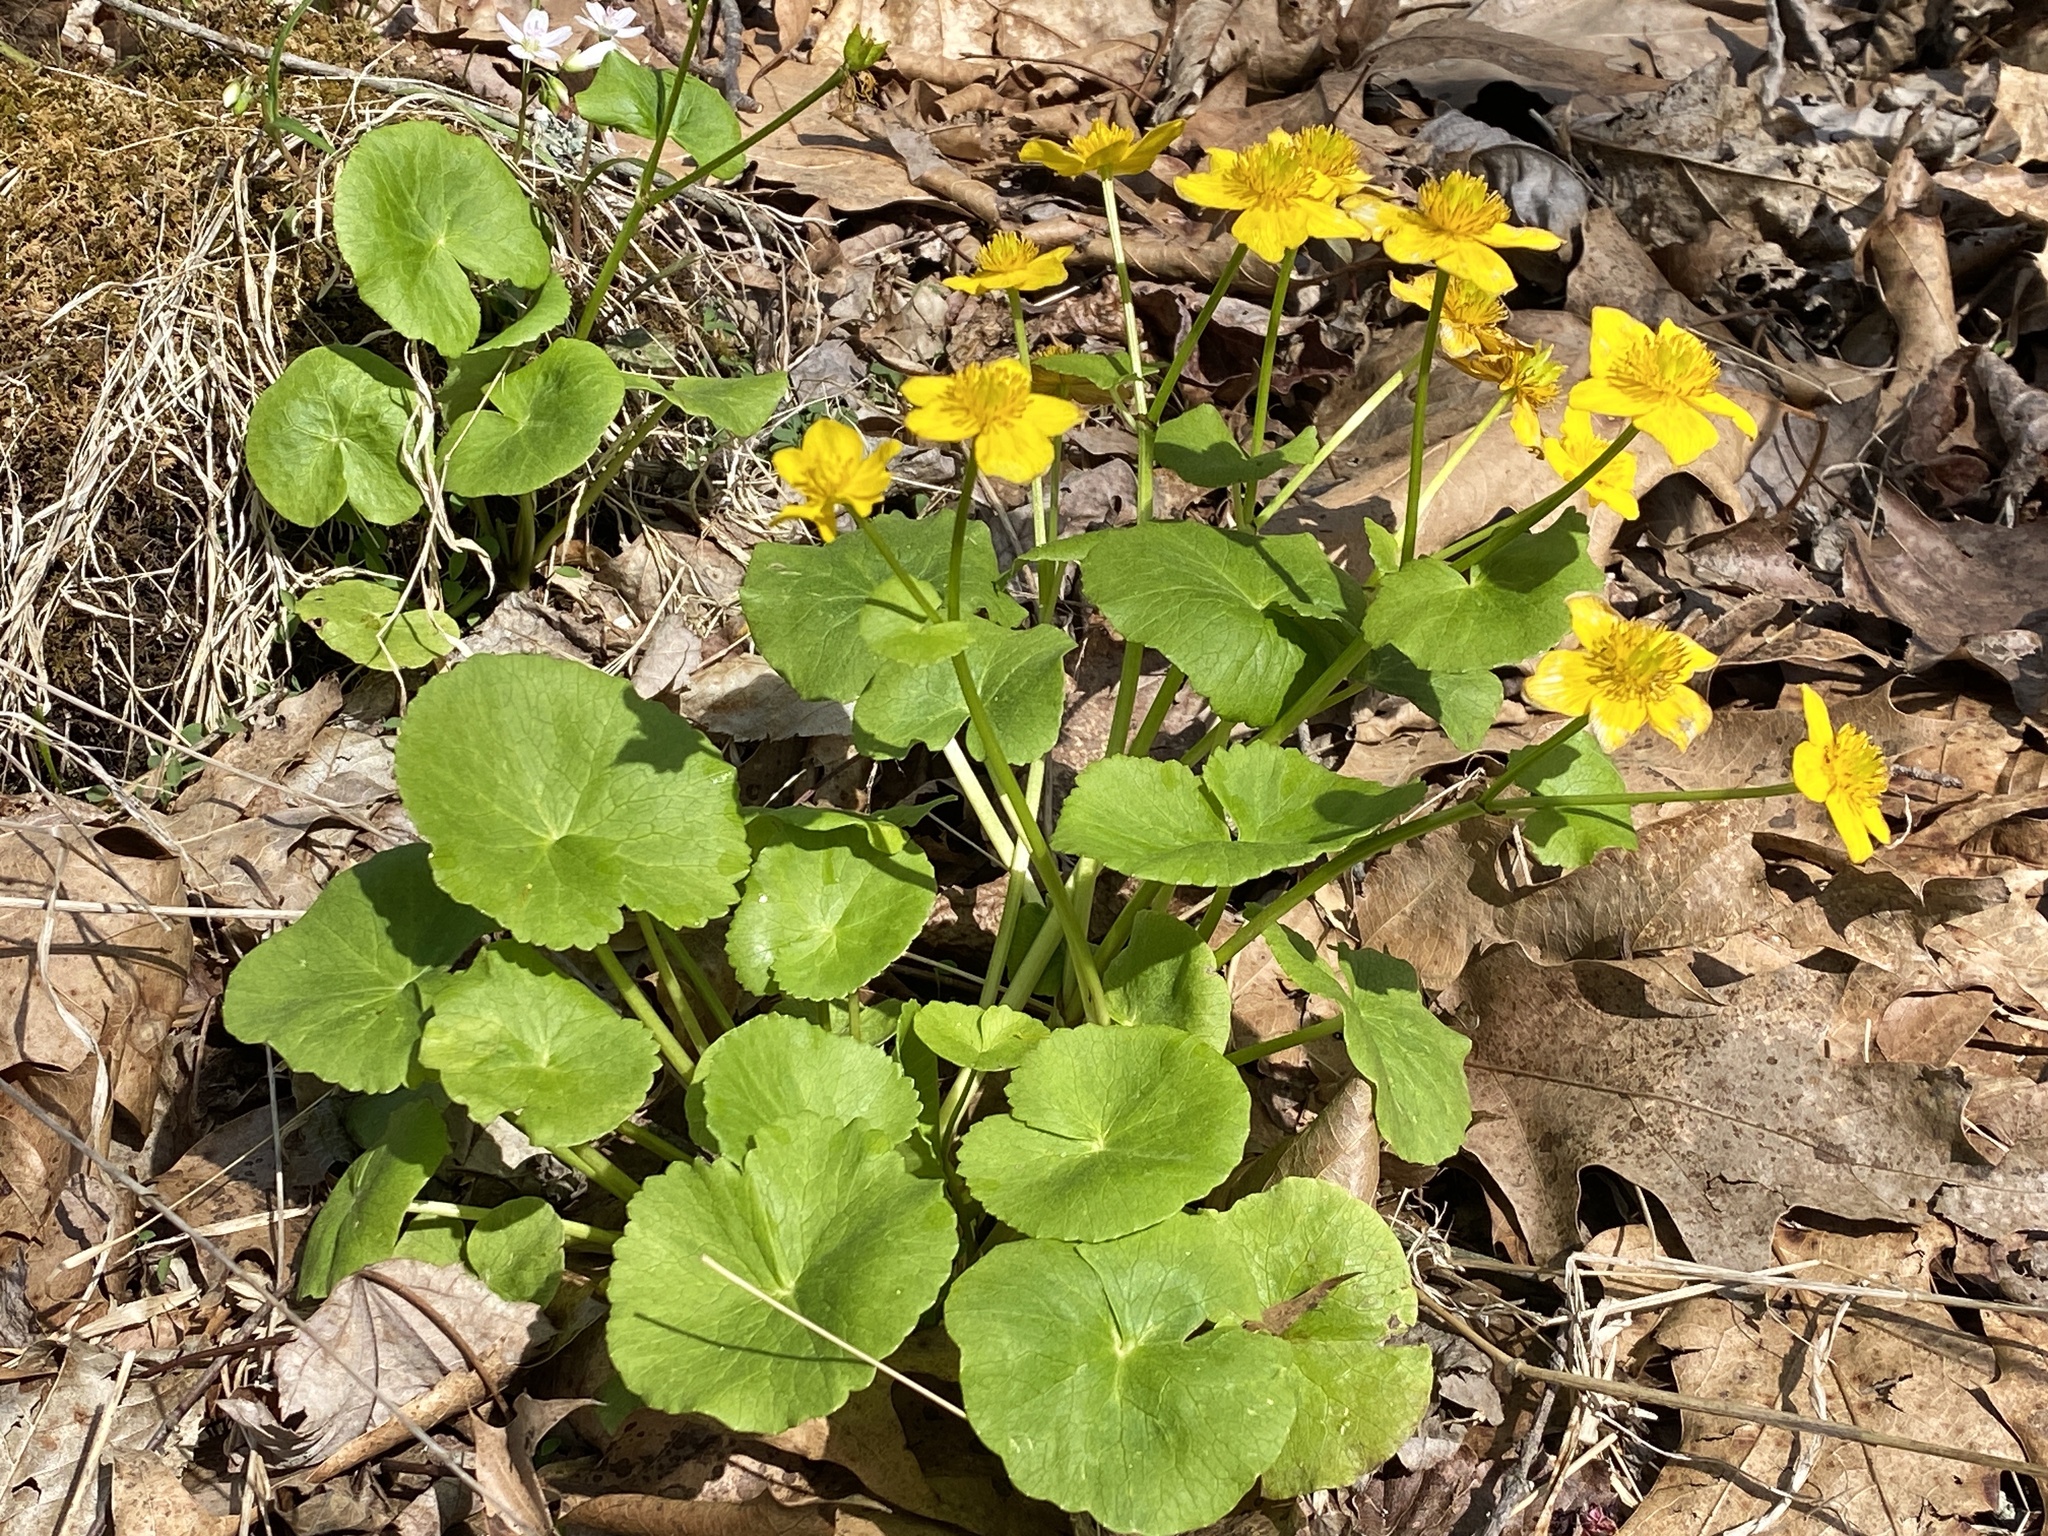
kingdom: Plantae
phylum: Tracheophyta
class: Magnoliopsida
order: Ranunculales
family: Ranunculaceae
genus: Caltha
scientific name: Caltha palustris
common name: Marsh marigold
